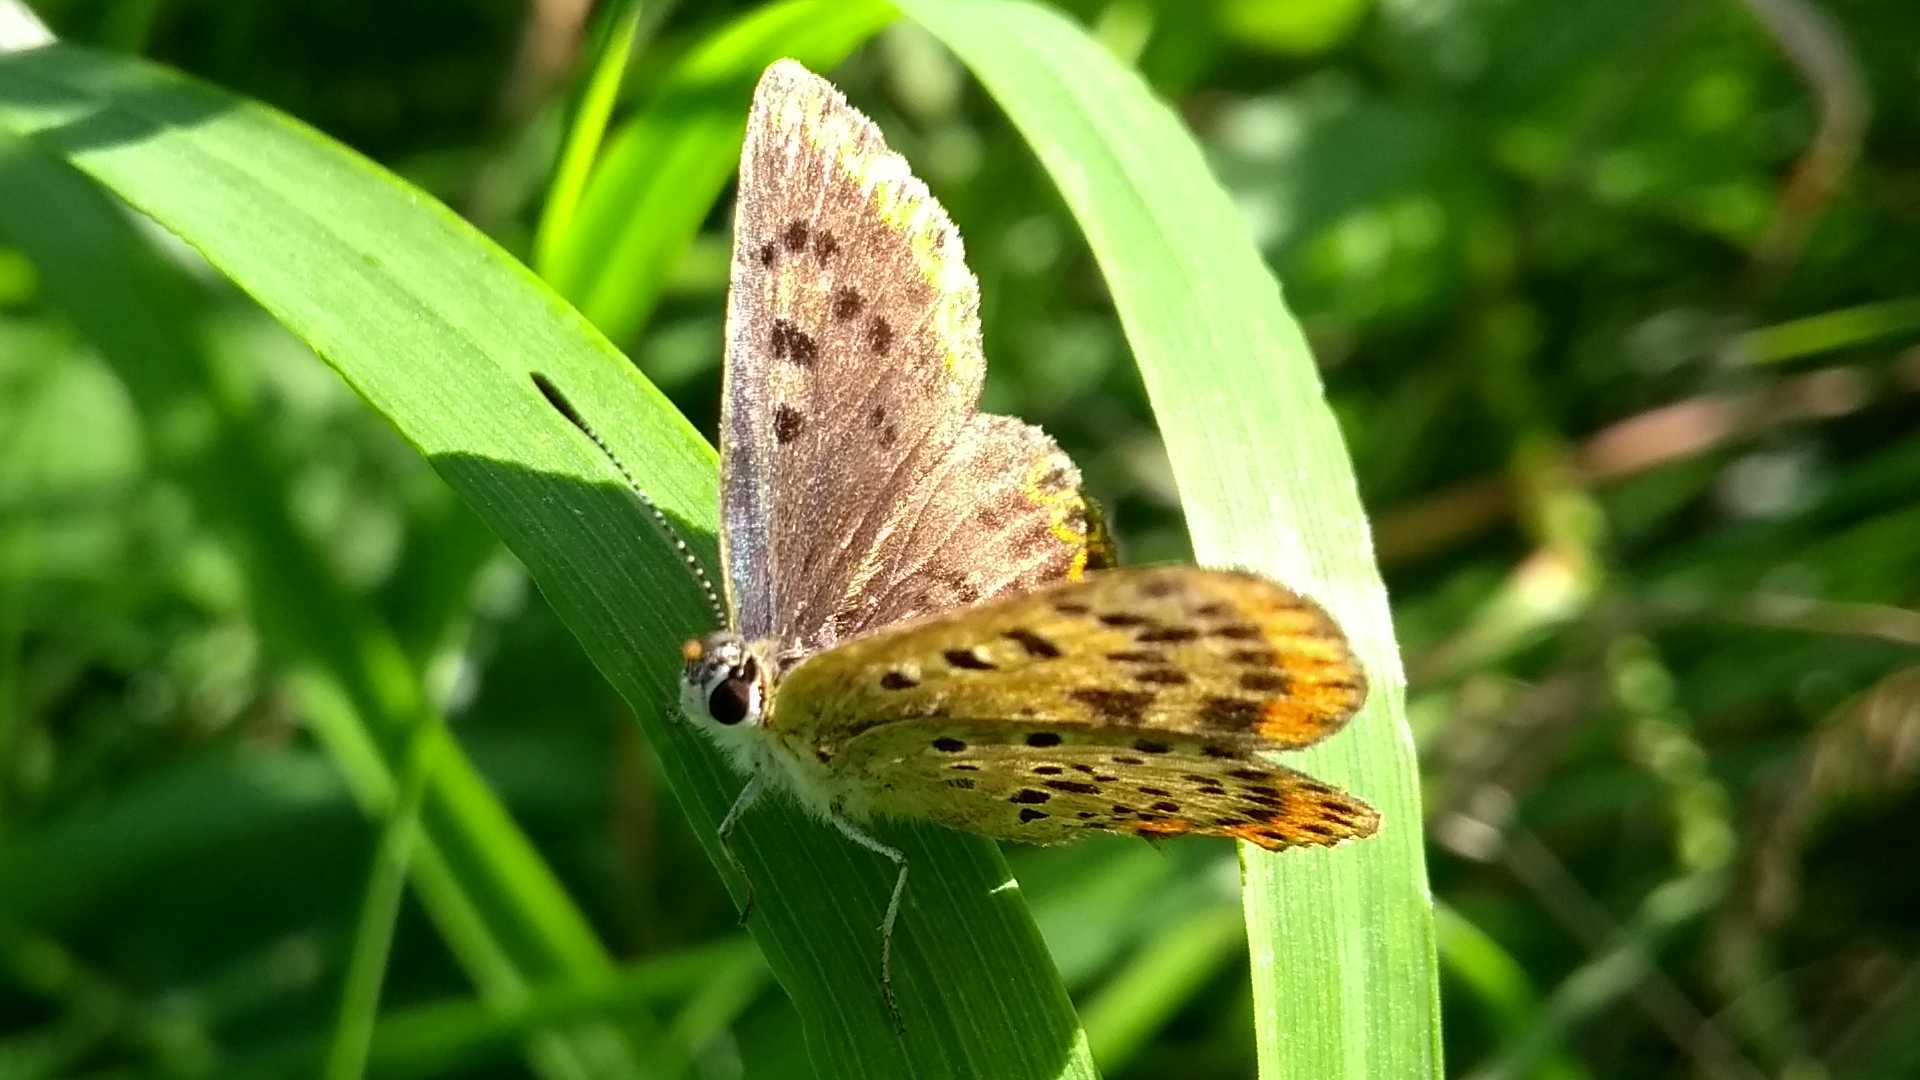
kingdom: Animalia
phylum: Arthropoda
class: Insecta
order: Lepidoptera
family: Lycaenidae
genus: Loweia
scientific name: Loweia tityrus
